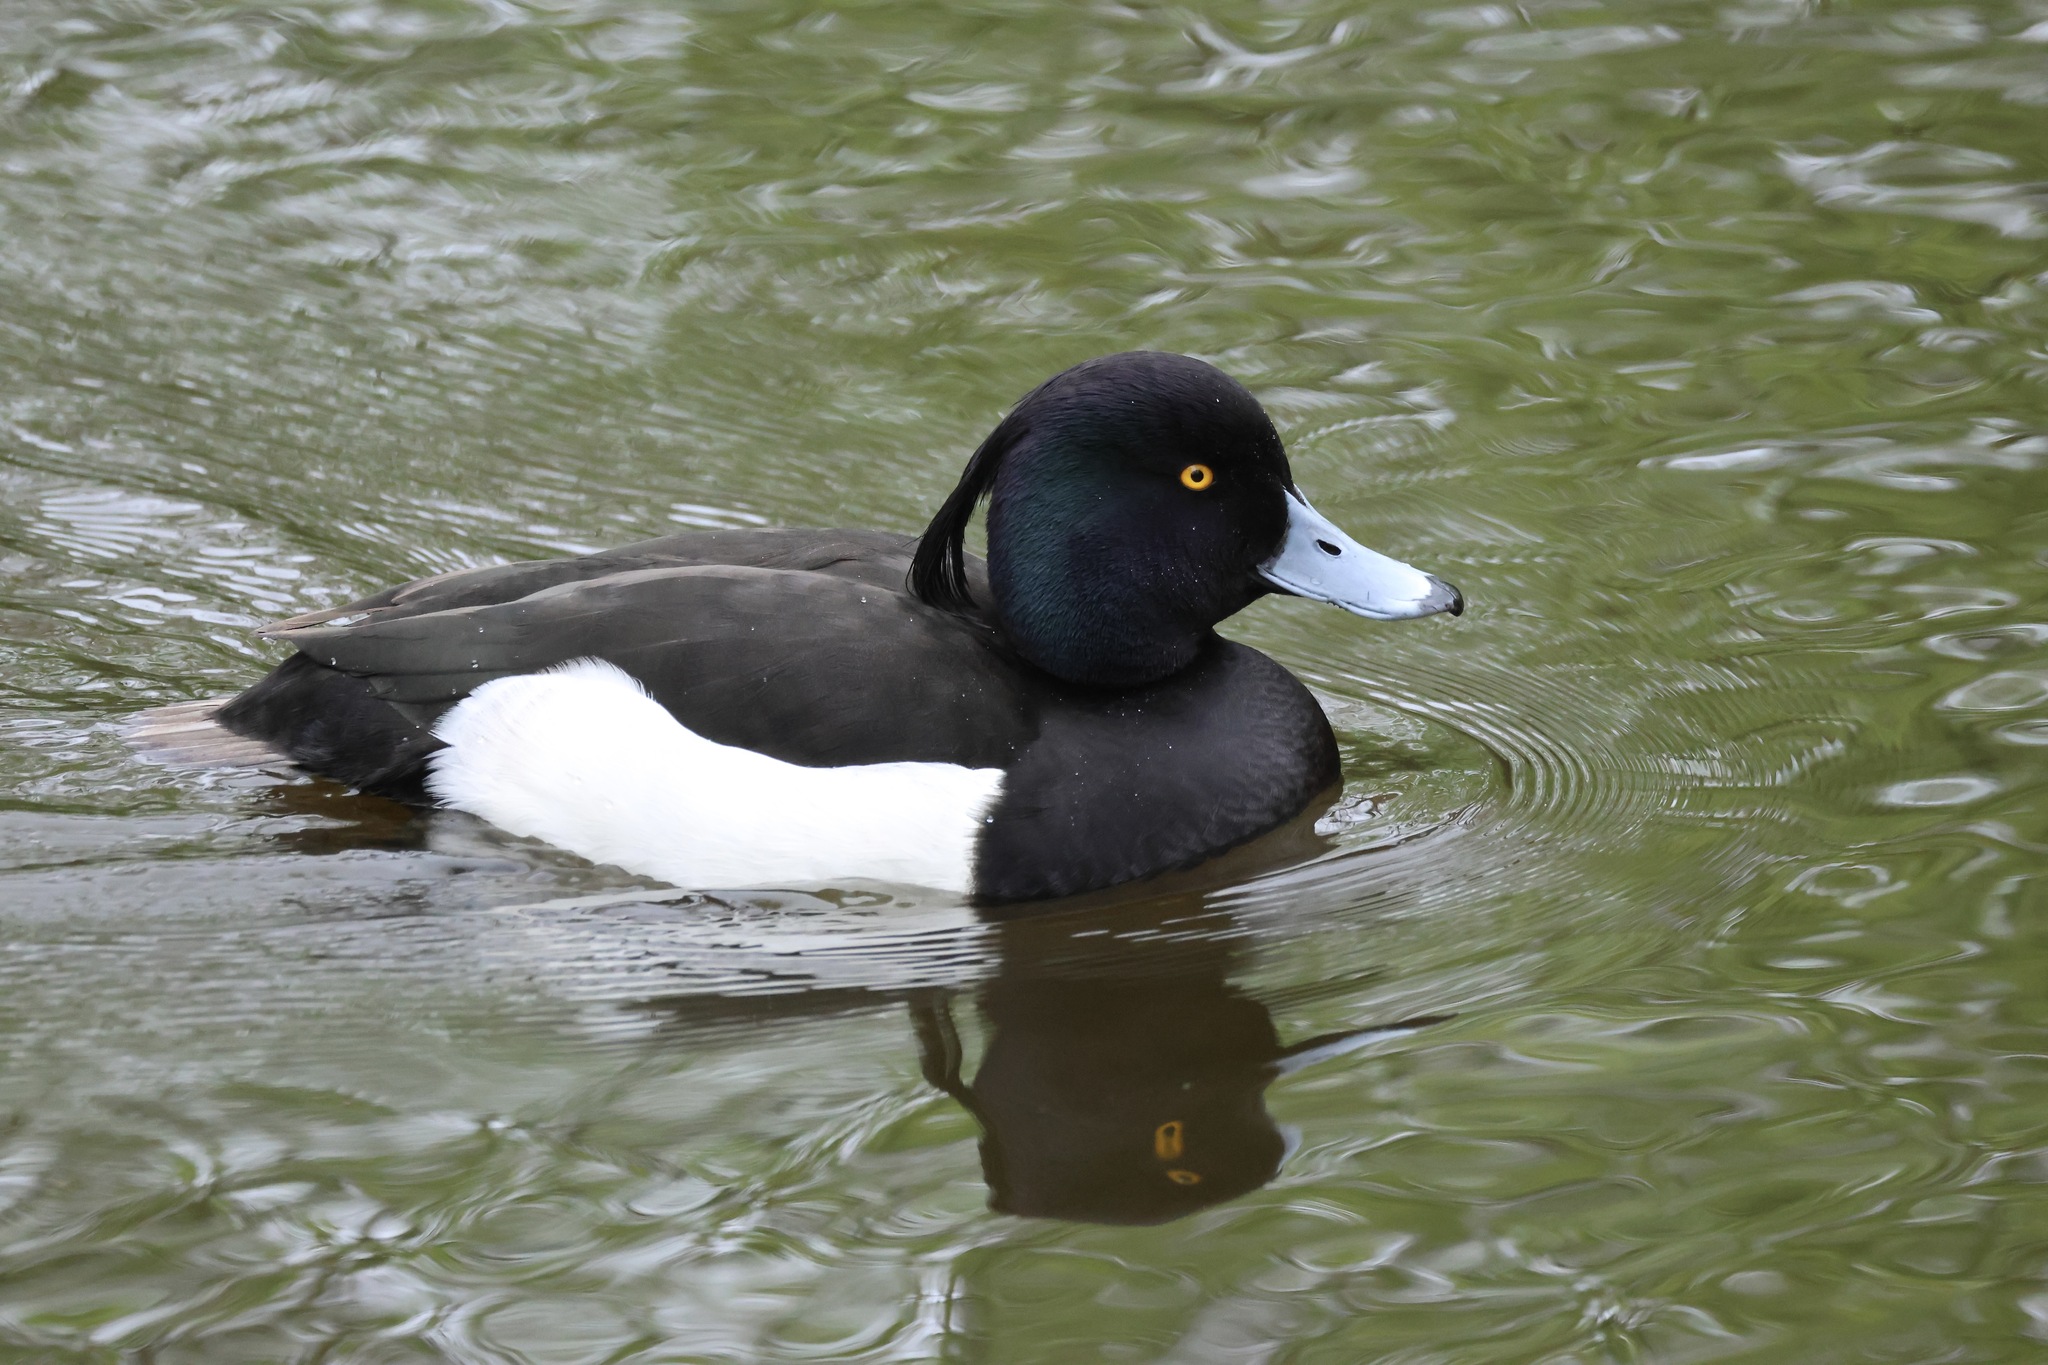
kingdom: Animalia
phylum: Chordata
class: Aves
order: Anseriformes
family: Anatidae
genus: Aythya
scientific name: Aythya fuligula
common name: Tufted duck
